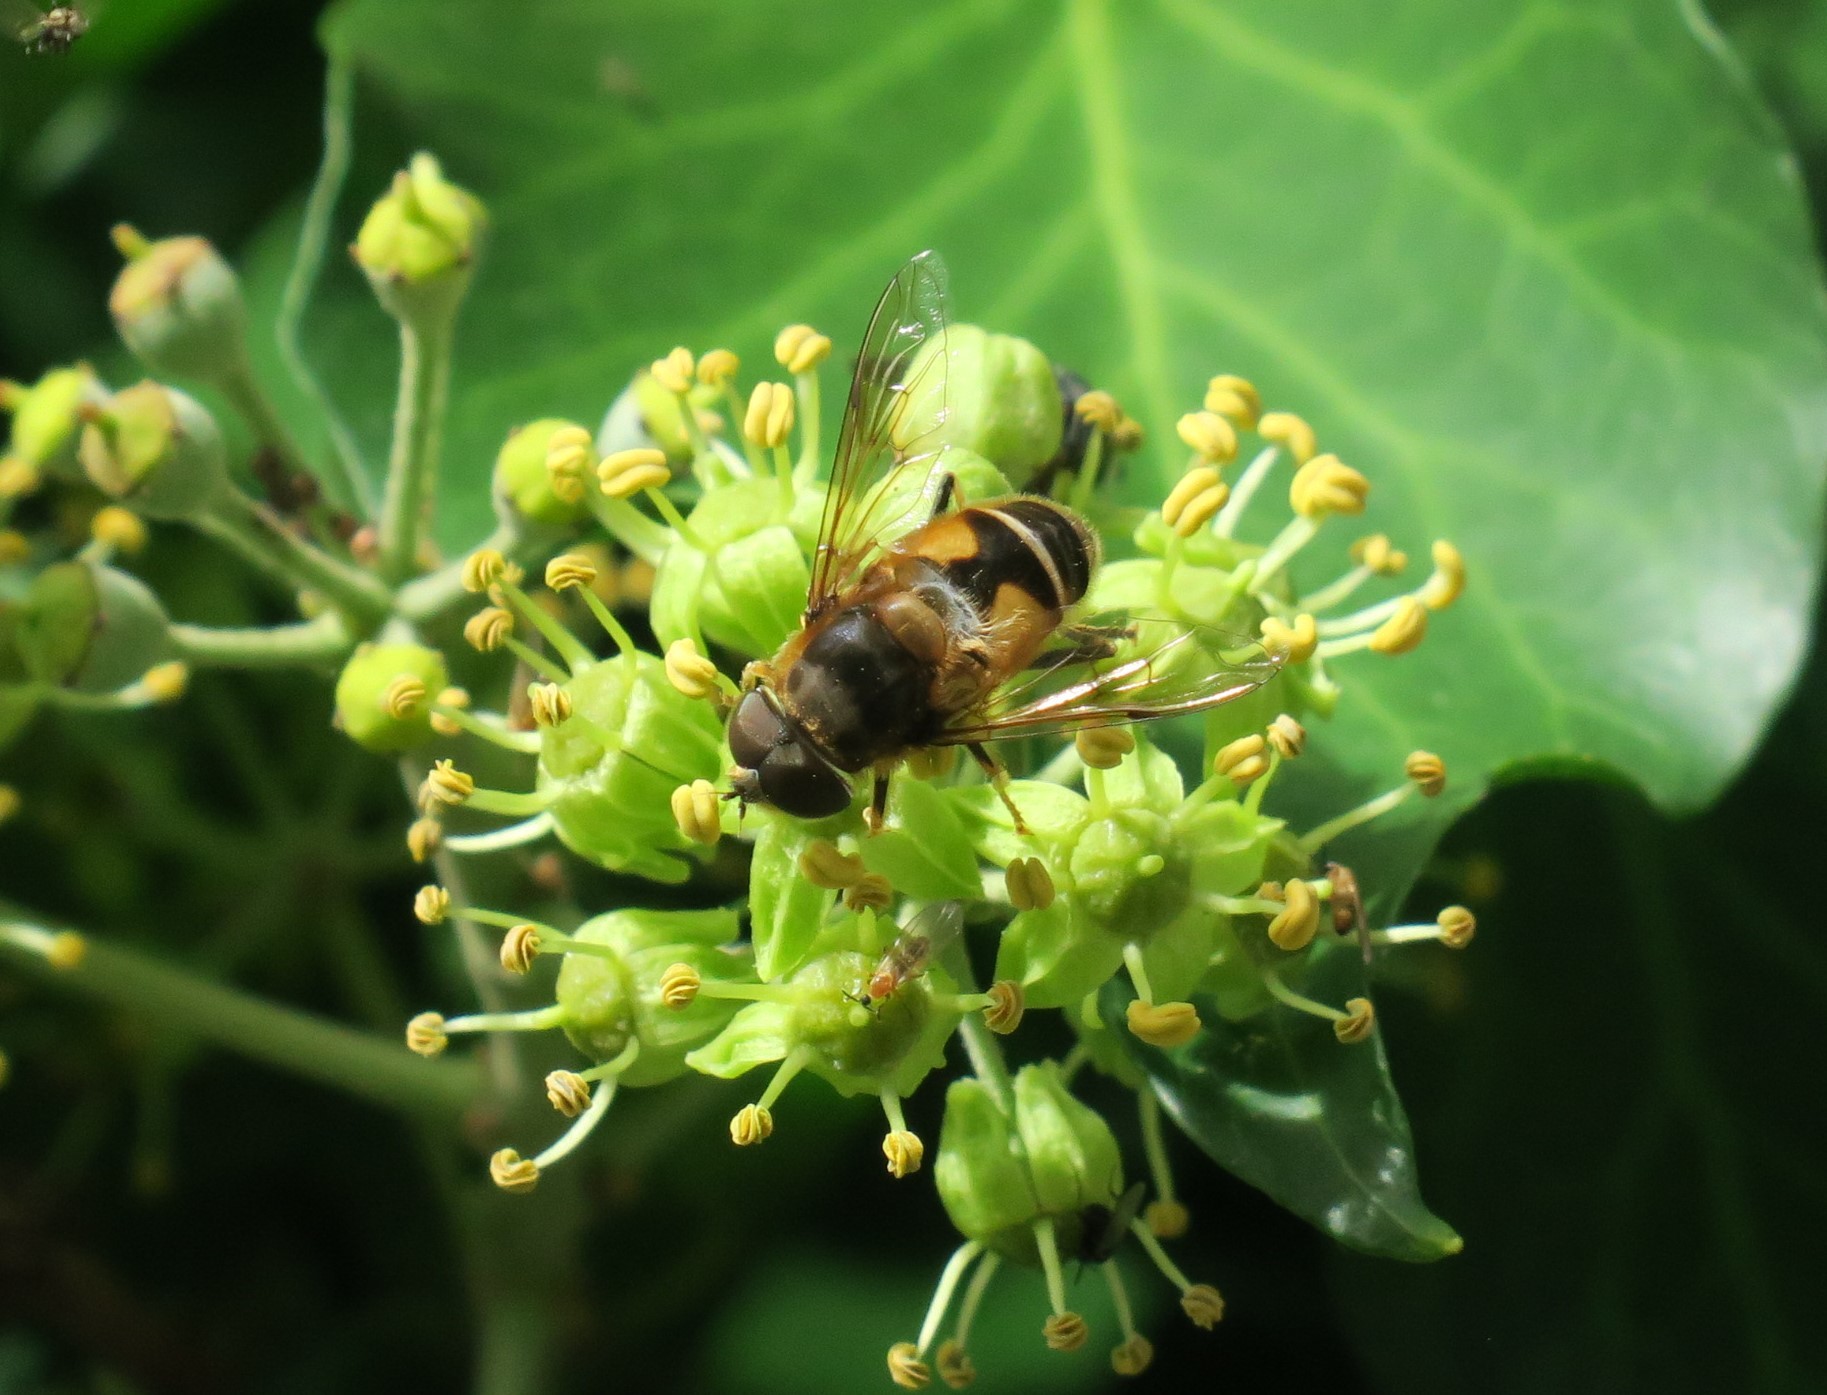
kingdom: Animalia
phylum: Arthropoda
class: Insecta
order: Diptera
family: Syrphidae
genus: Eristalis
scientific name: Eristalis pertinax
